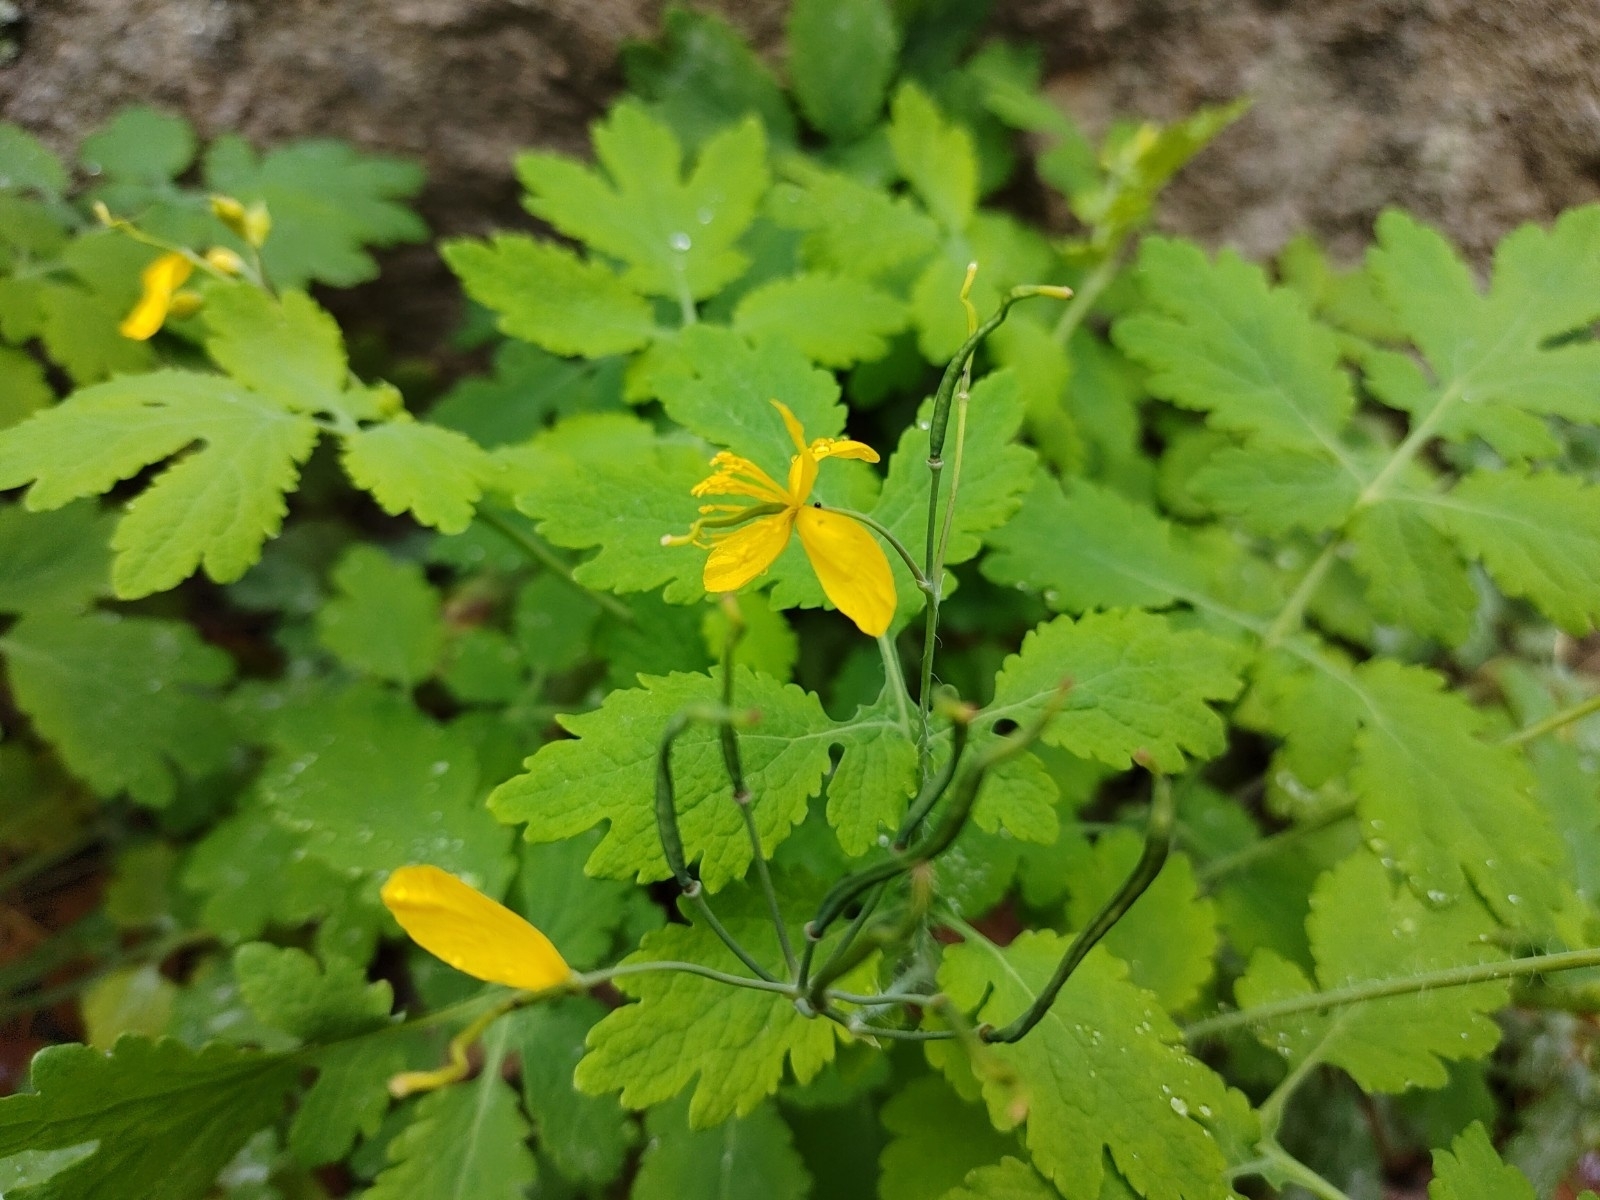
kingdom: Plantae
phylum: Tracheophyta
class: Magnoliopsida
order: Ranunculales
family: Papaveraceae
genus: Chelidonium
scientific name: Chelidonium majus
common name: Greater celandine
